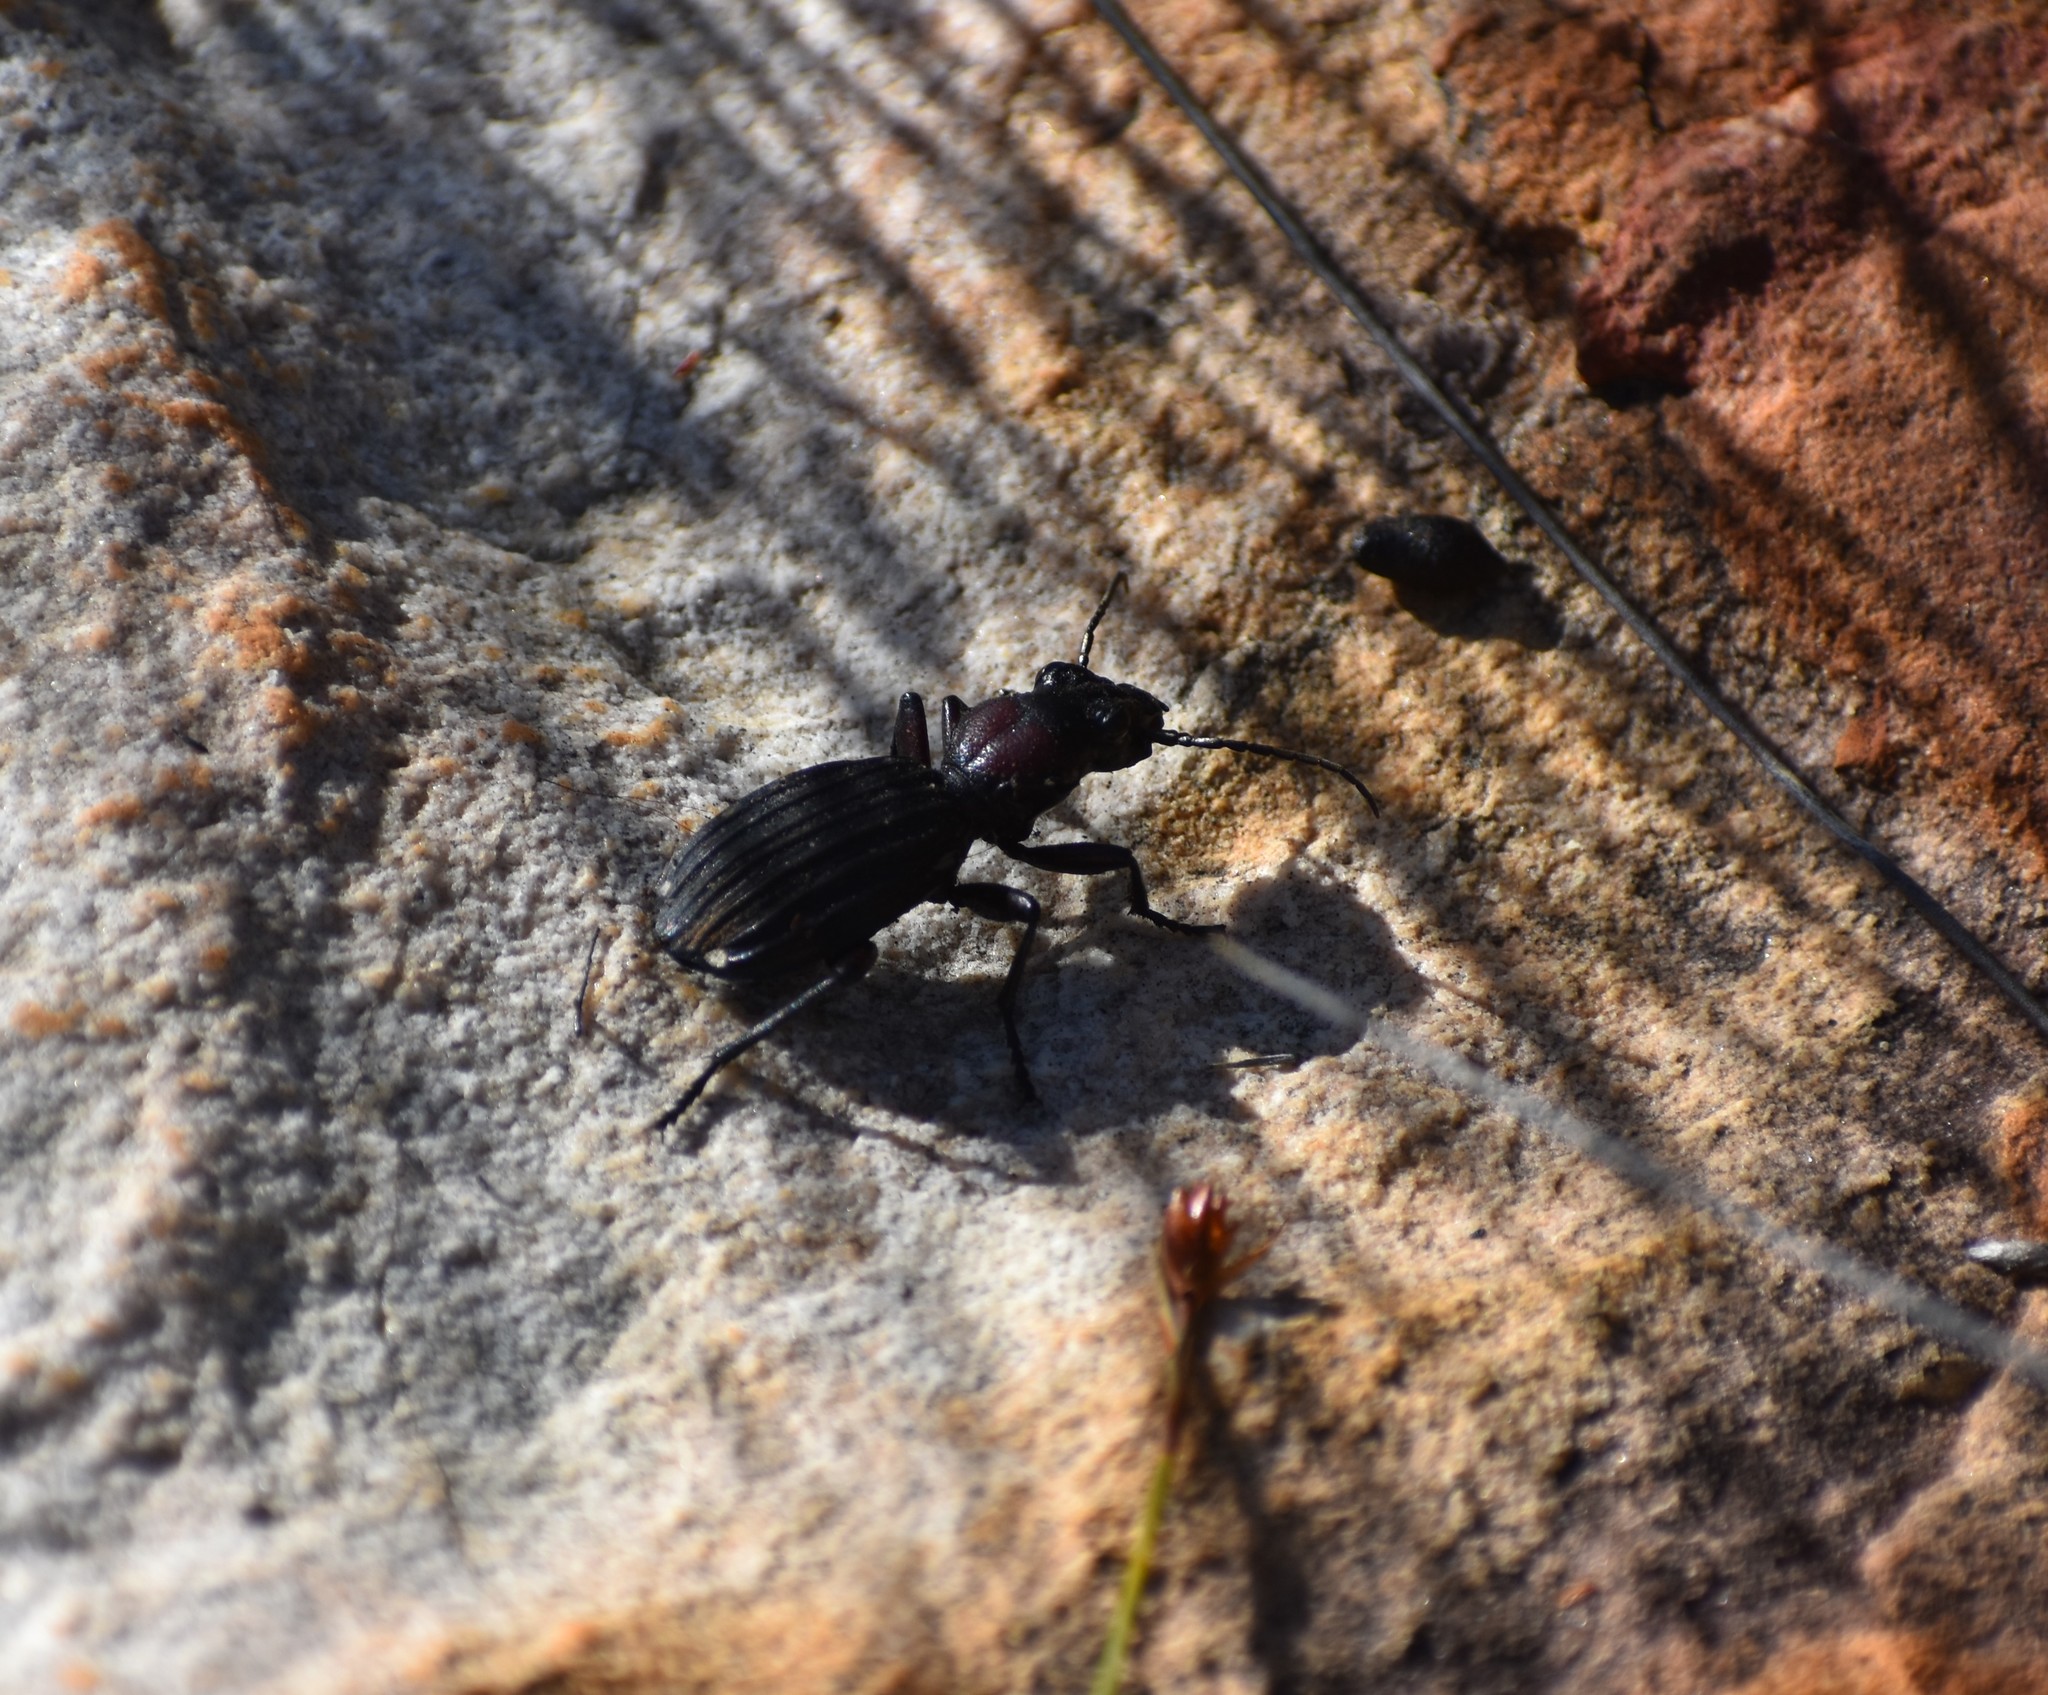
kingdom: Animalia
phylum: Arthropoda
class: Insecta
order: Coleoptera
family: Carabidae
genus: Anthia
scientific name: Anthia decemguttata
